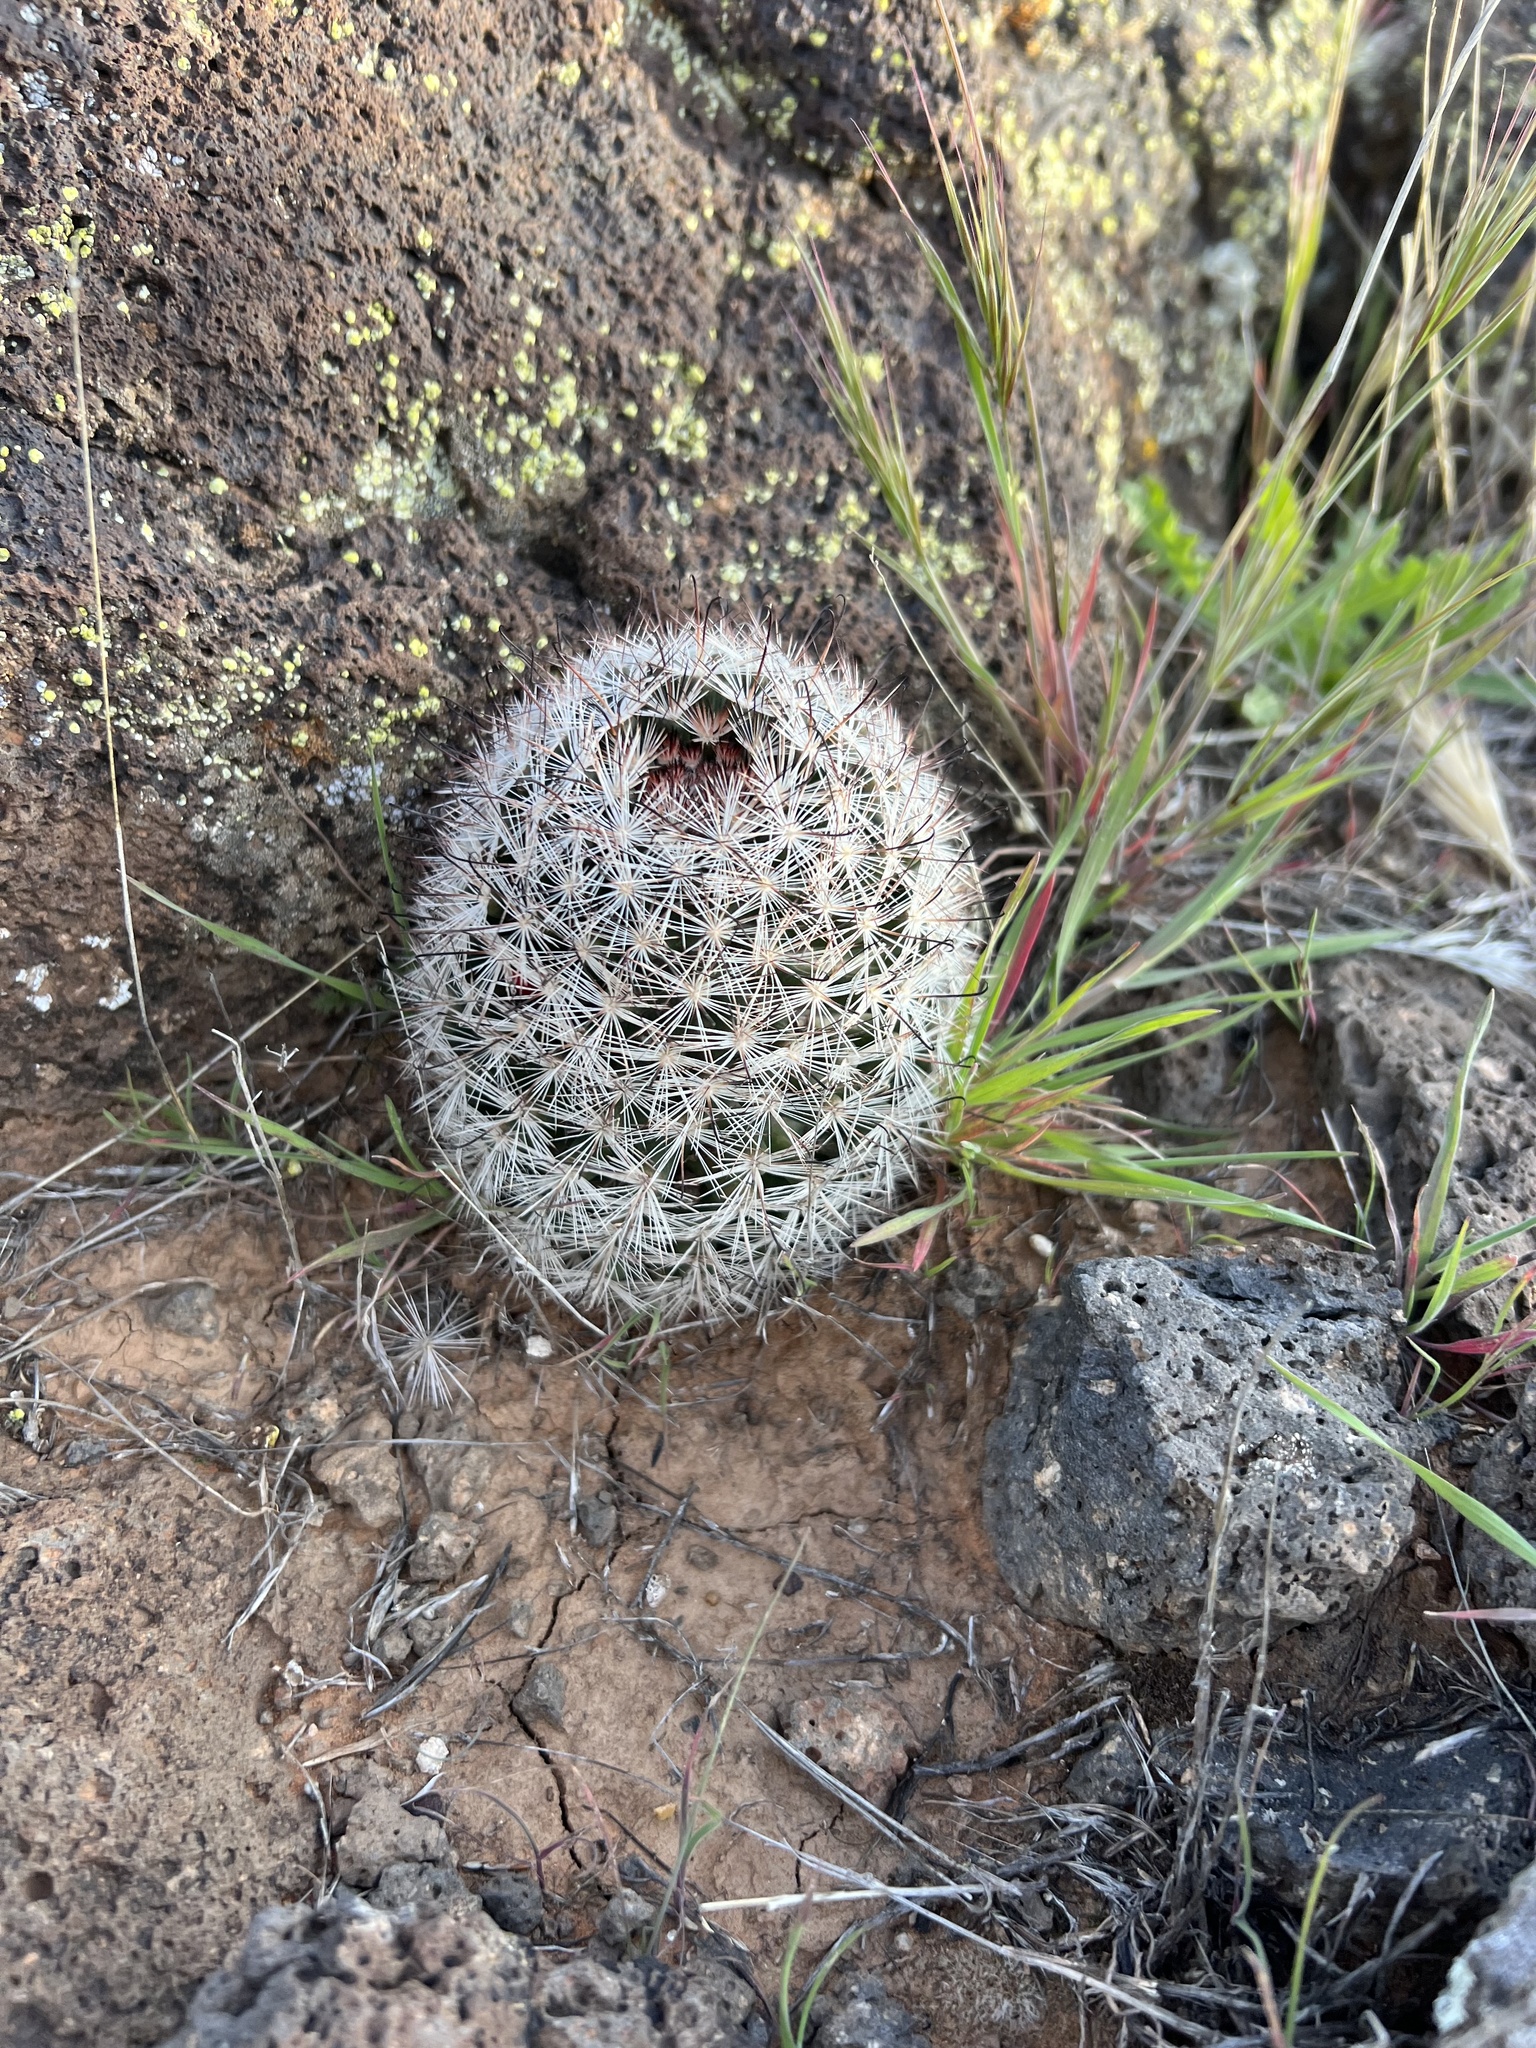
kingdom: Plantae
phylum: Tracheophyta
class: Magnoliopsida
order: Caryophyllales
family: Cactaceae
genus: Cochemiea
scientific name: Cochemiea tetrancistra
